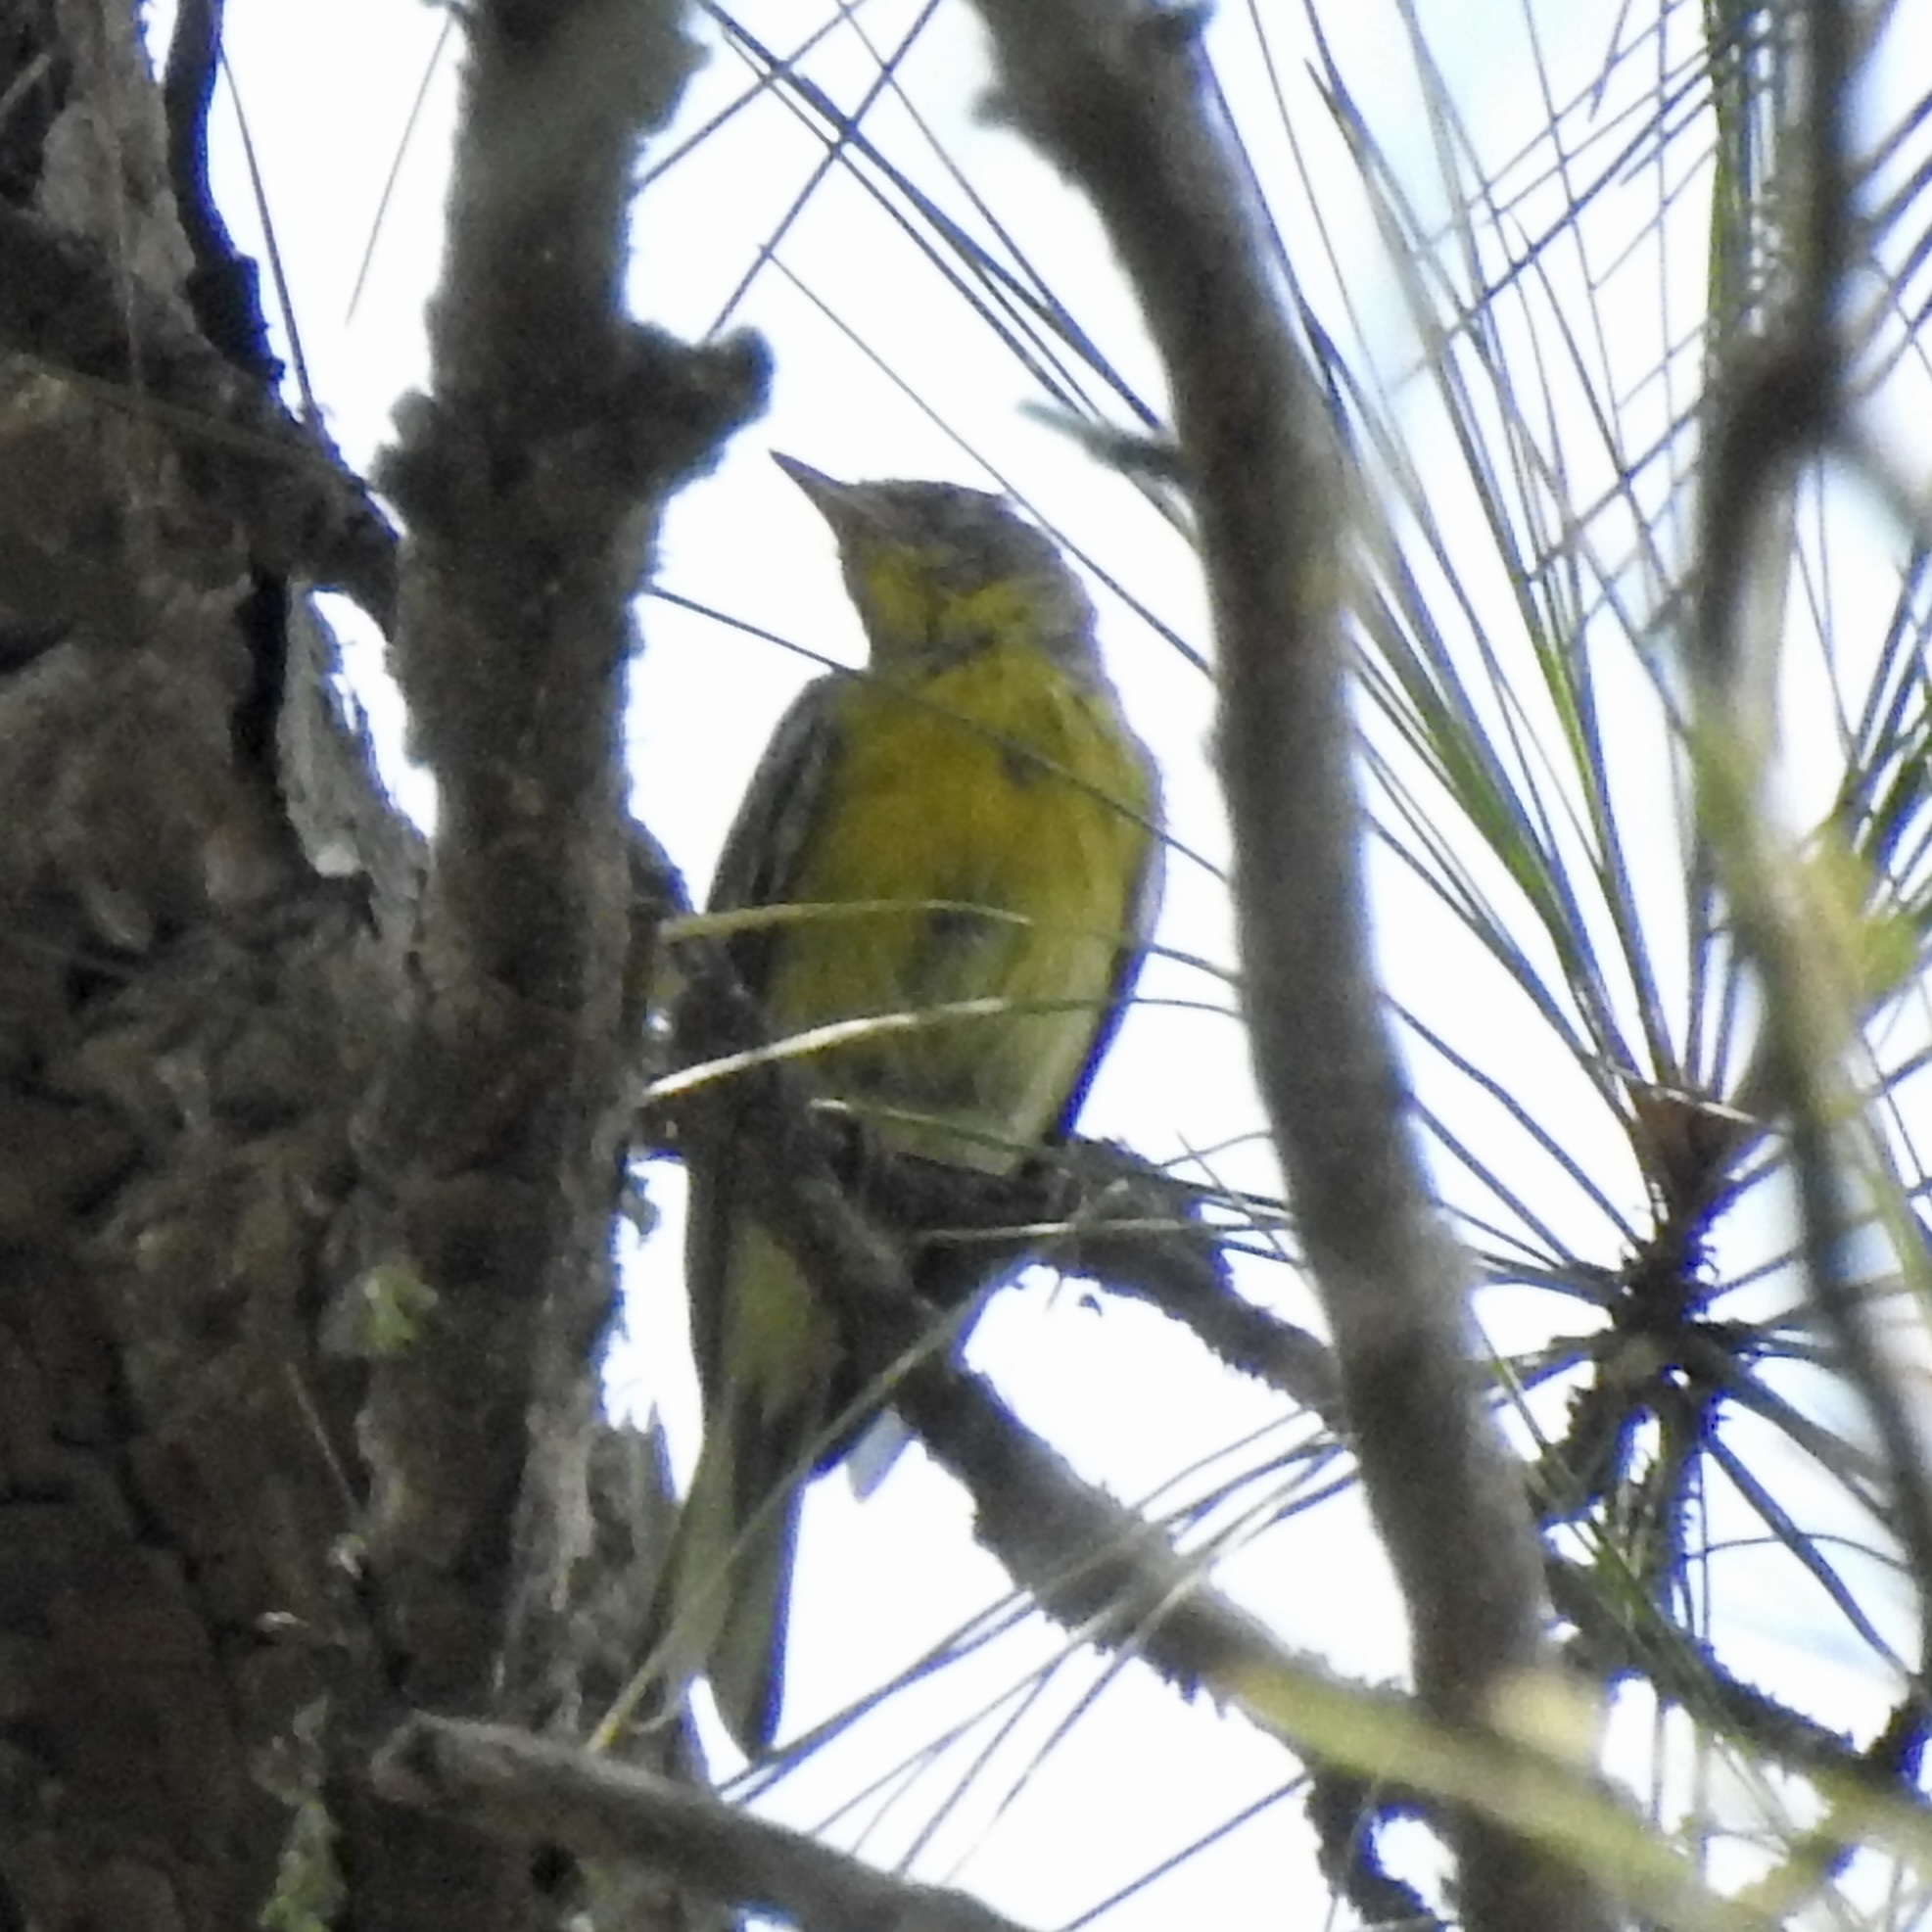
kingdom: Animalia
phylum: Chordata
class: Aves
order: Passeriformes
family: Parulidae
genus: Setophaga
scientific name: Setophaga pinus
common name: Pine warbler
